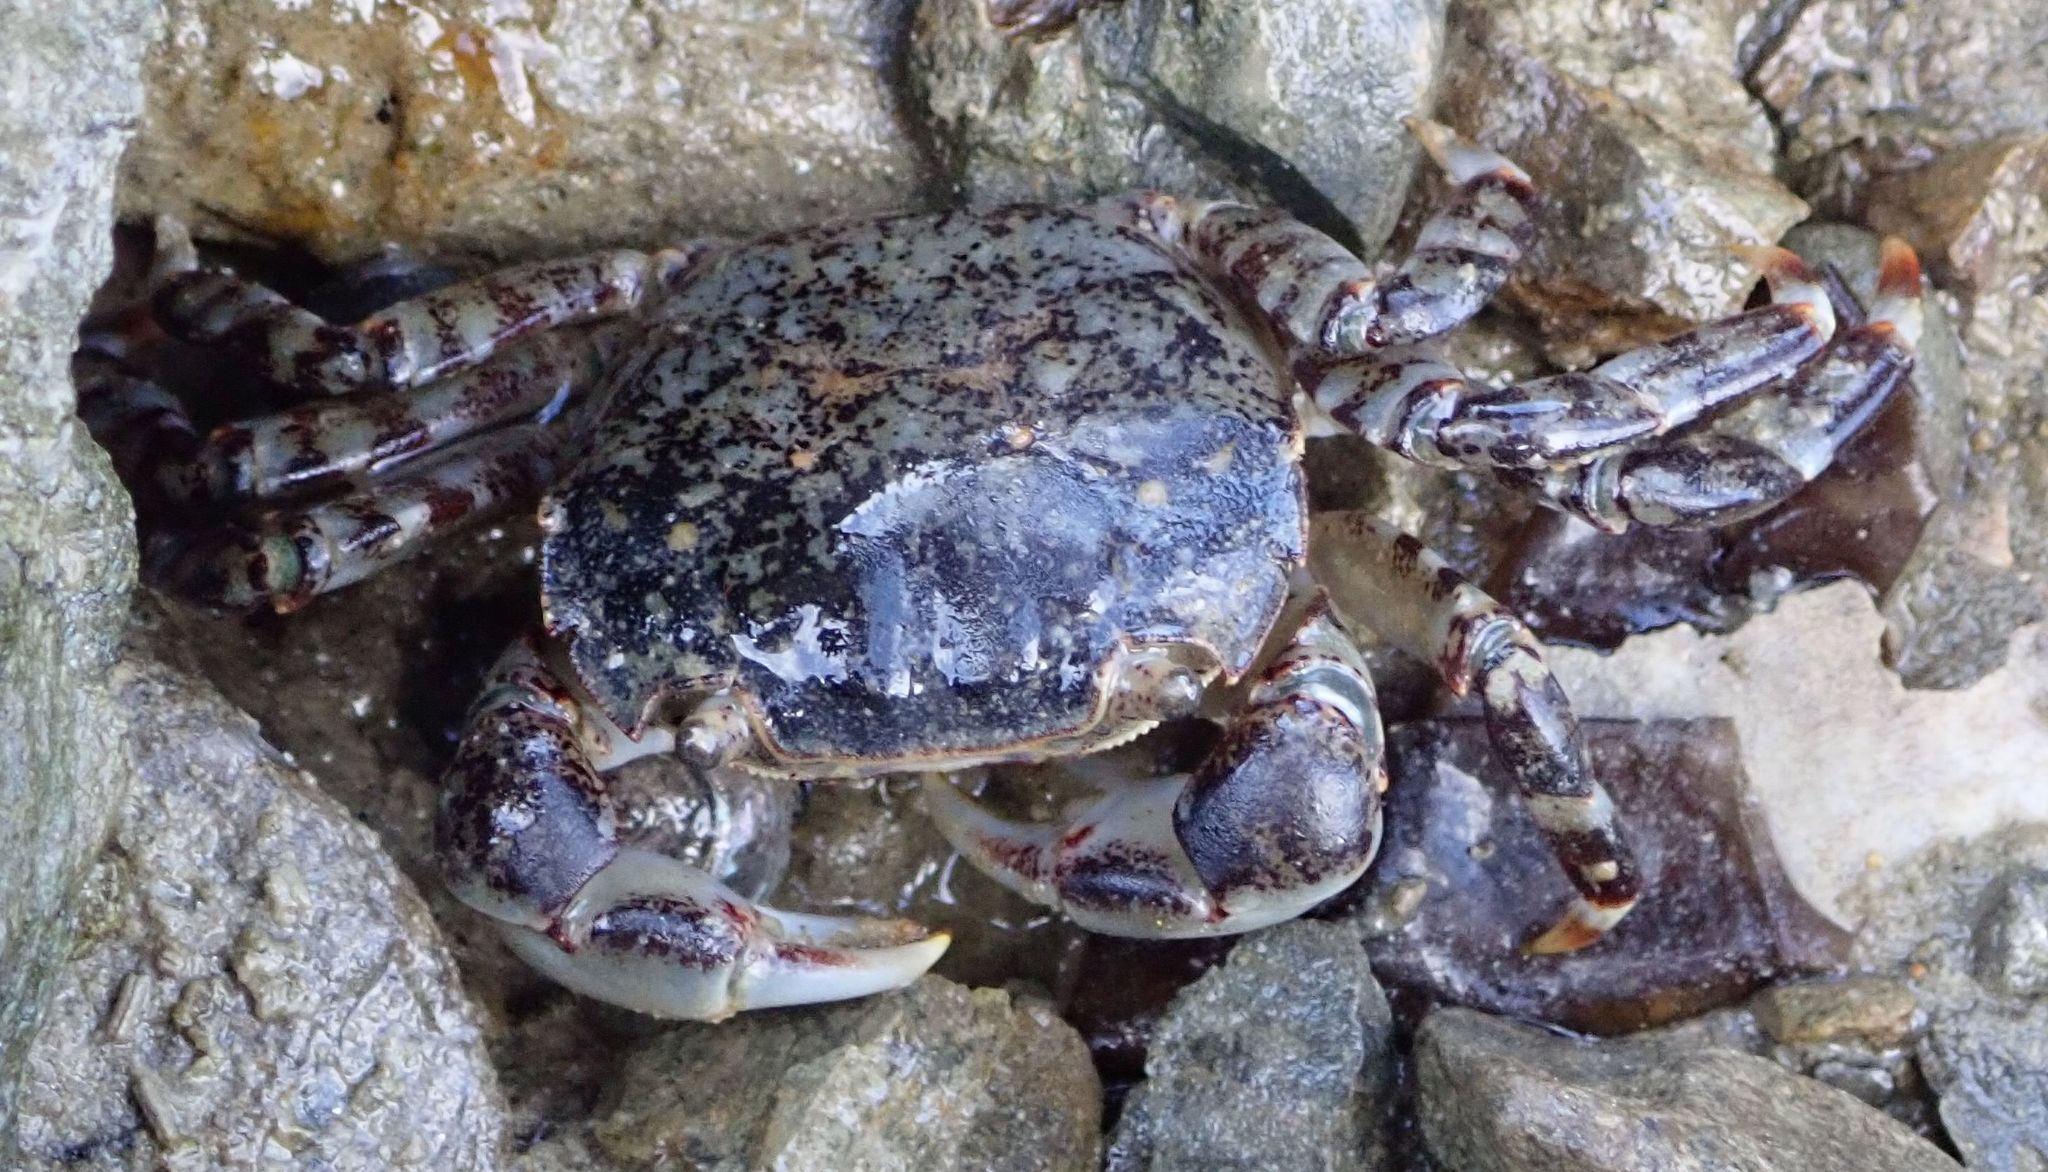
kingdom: Animalia
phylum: Arthropoda
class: Malacostraca
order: Decapoda
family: Varunidae
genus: Hemigrapsus
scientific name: Hemigrapsus sexdentatus
